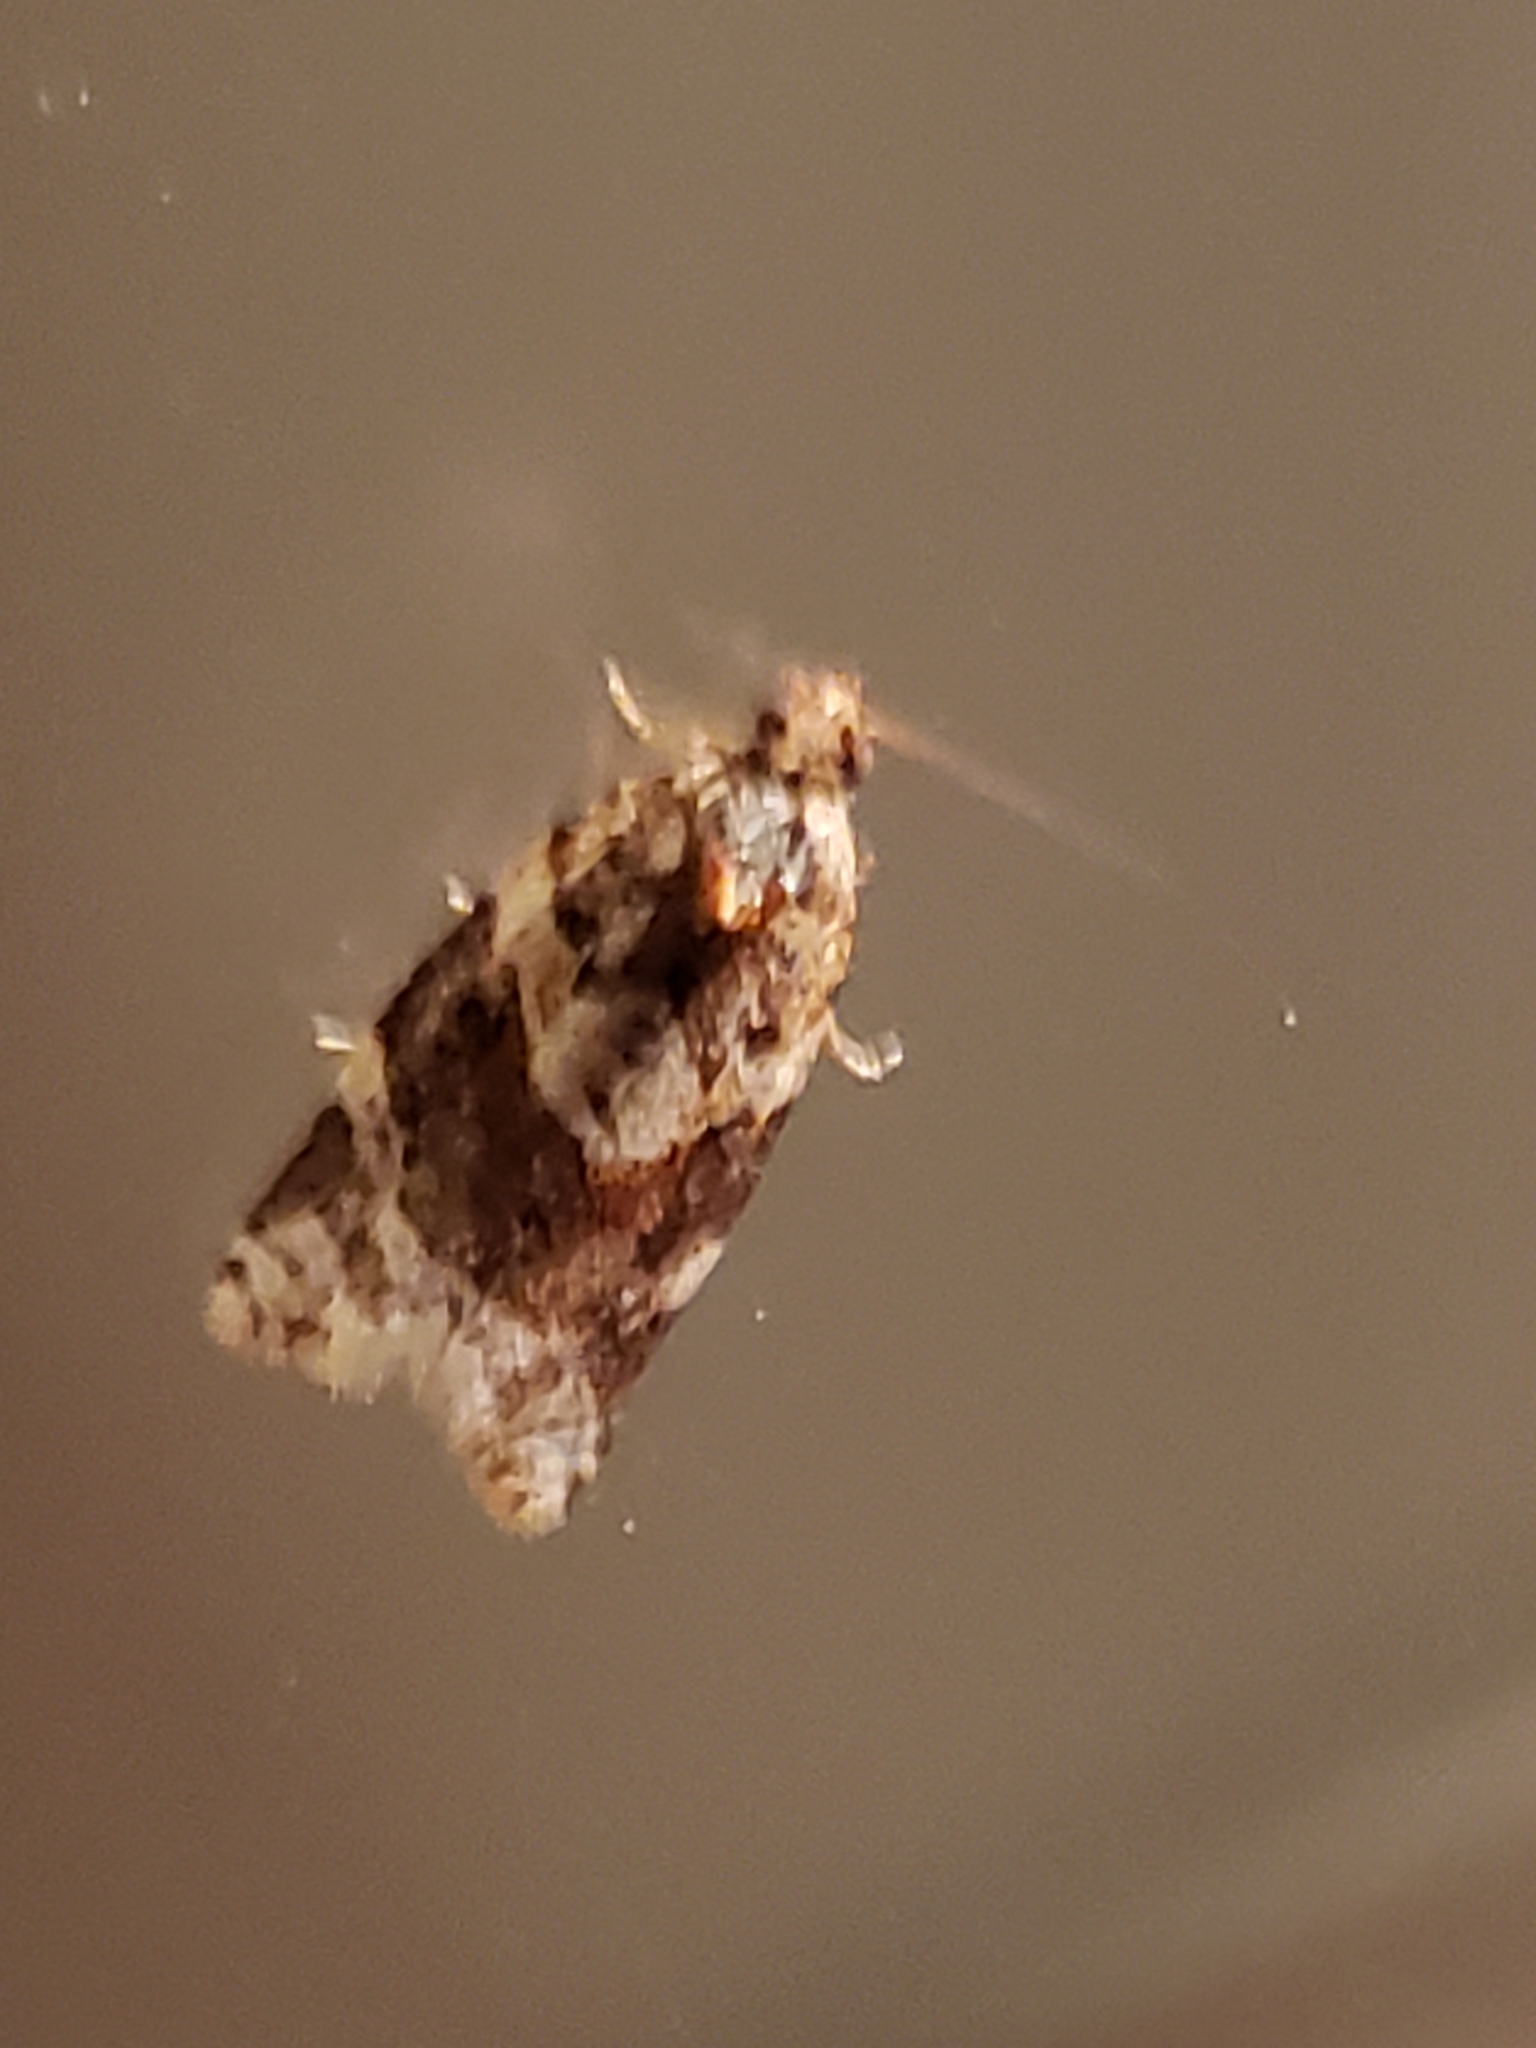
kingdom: Animalia
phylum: Arthropoda
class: Insecta
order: Lepidoptera
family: Tortricidae
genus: Argyrotaenia
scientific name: Argyrotaenia velutinana
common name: Red-banded leafroller moth
